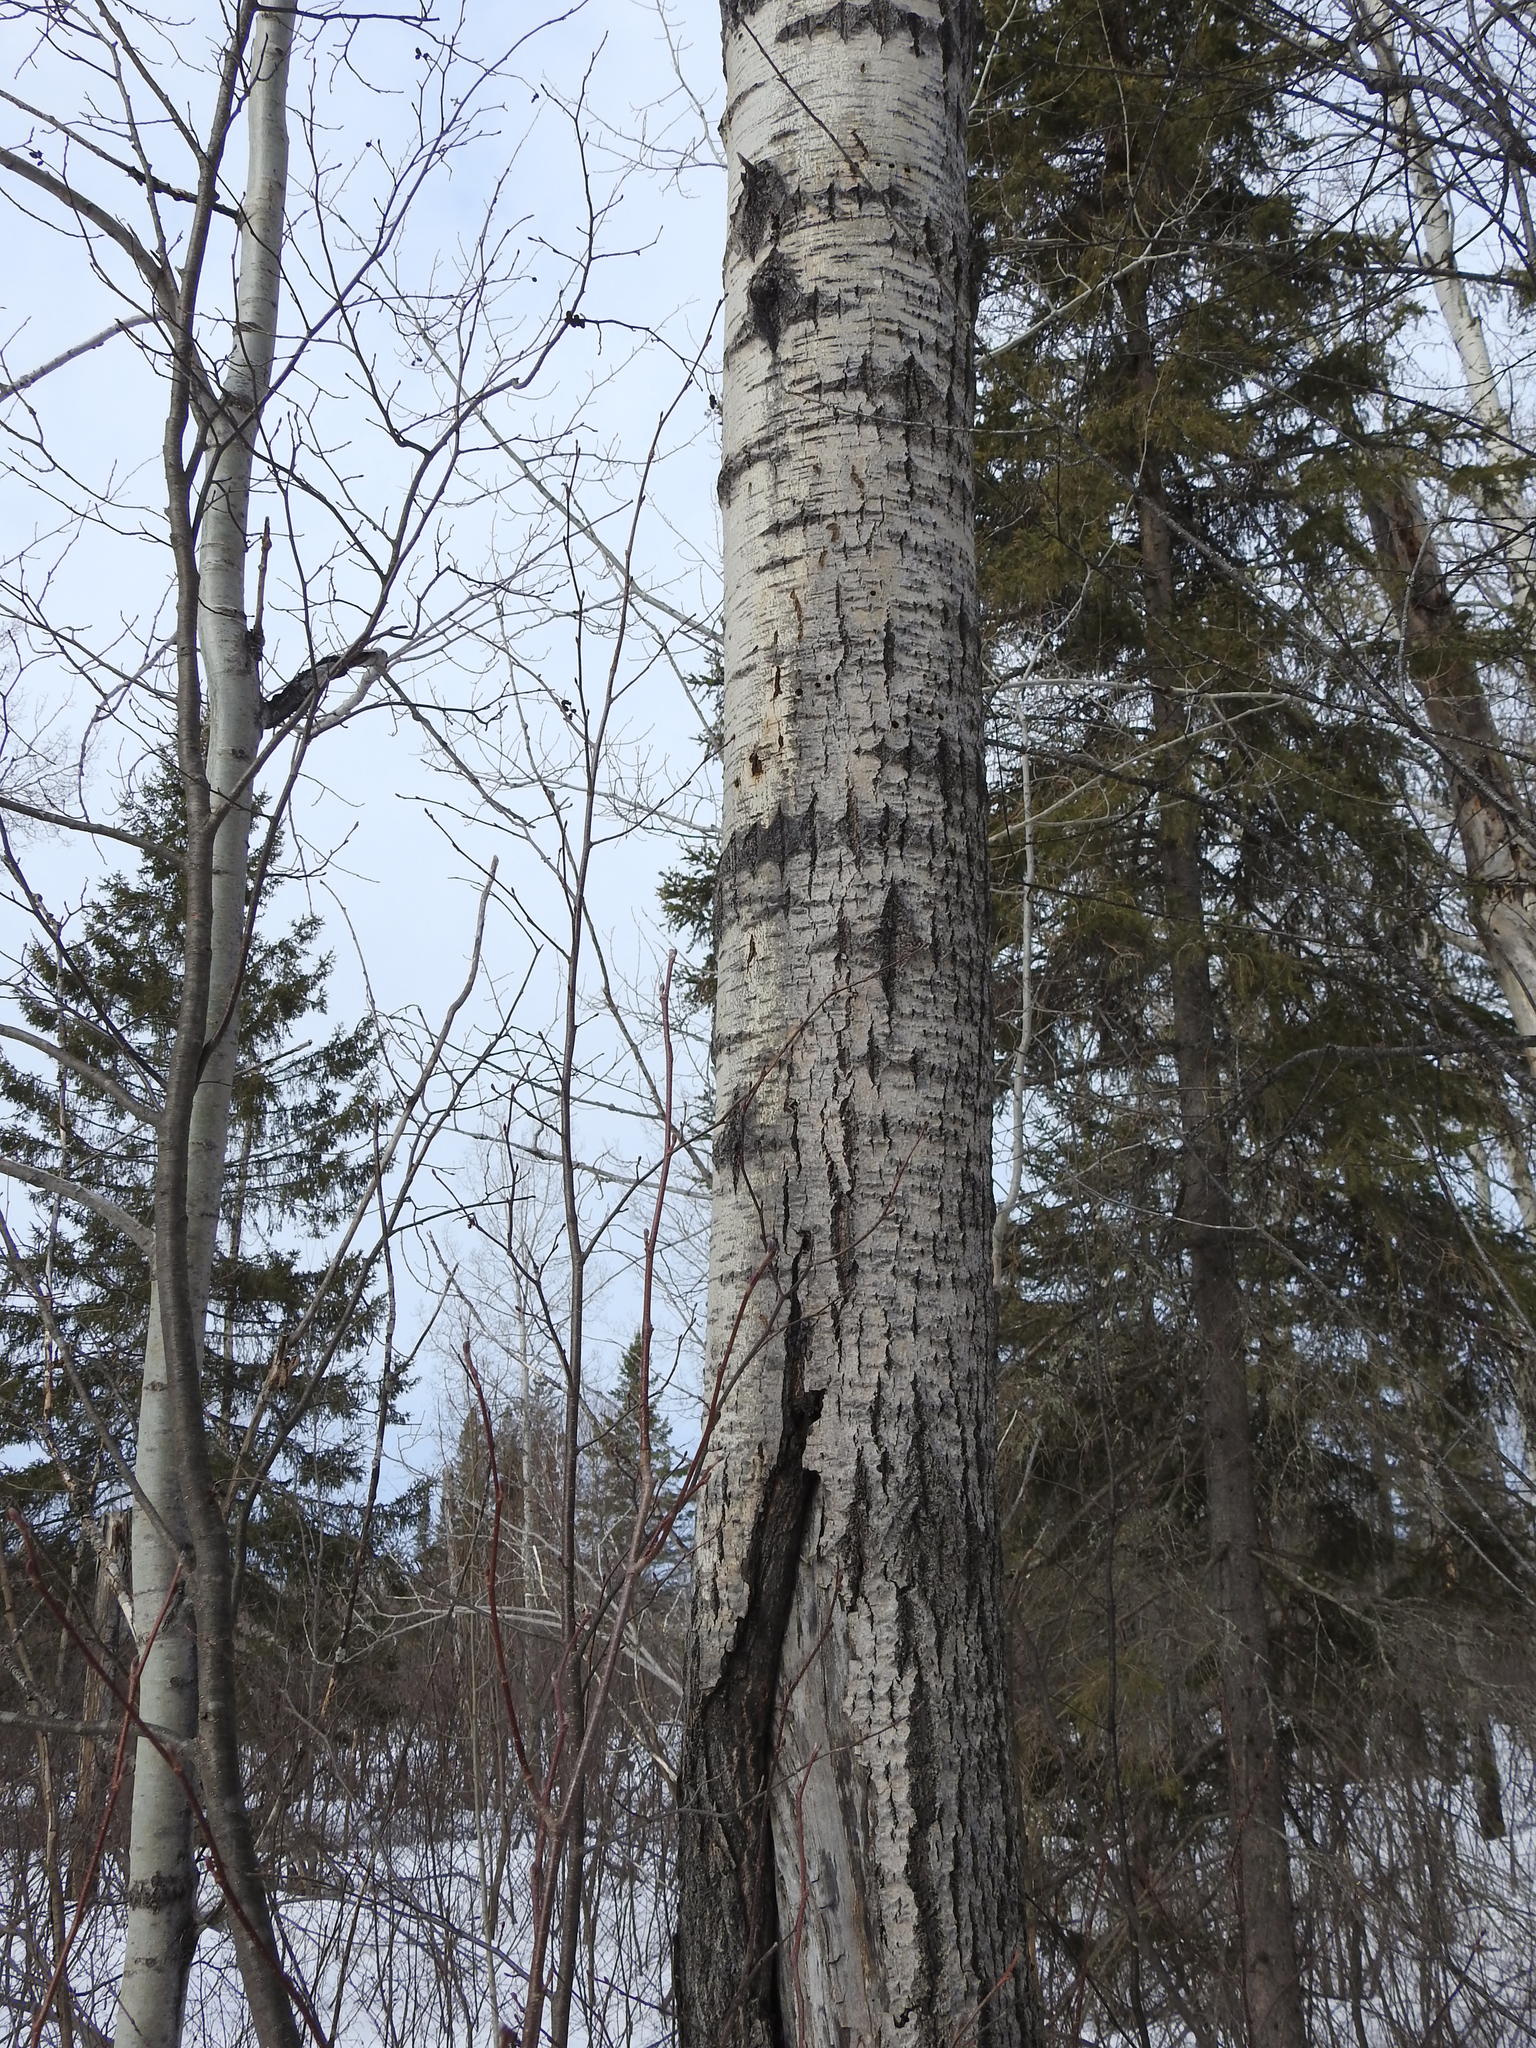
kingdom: Plantae
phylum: Tracheophyta
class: Magnoliopsida
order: Malpighiales
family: Salicaceae
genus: Populus
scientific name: Populus tremuloides
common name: Quaking aspen
